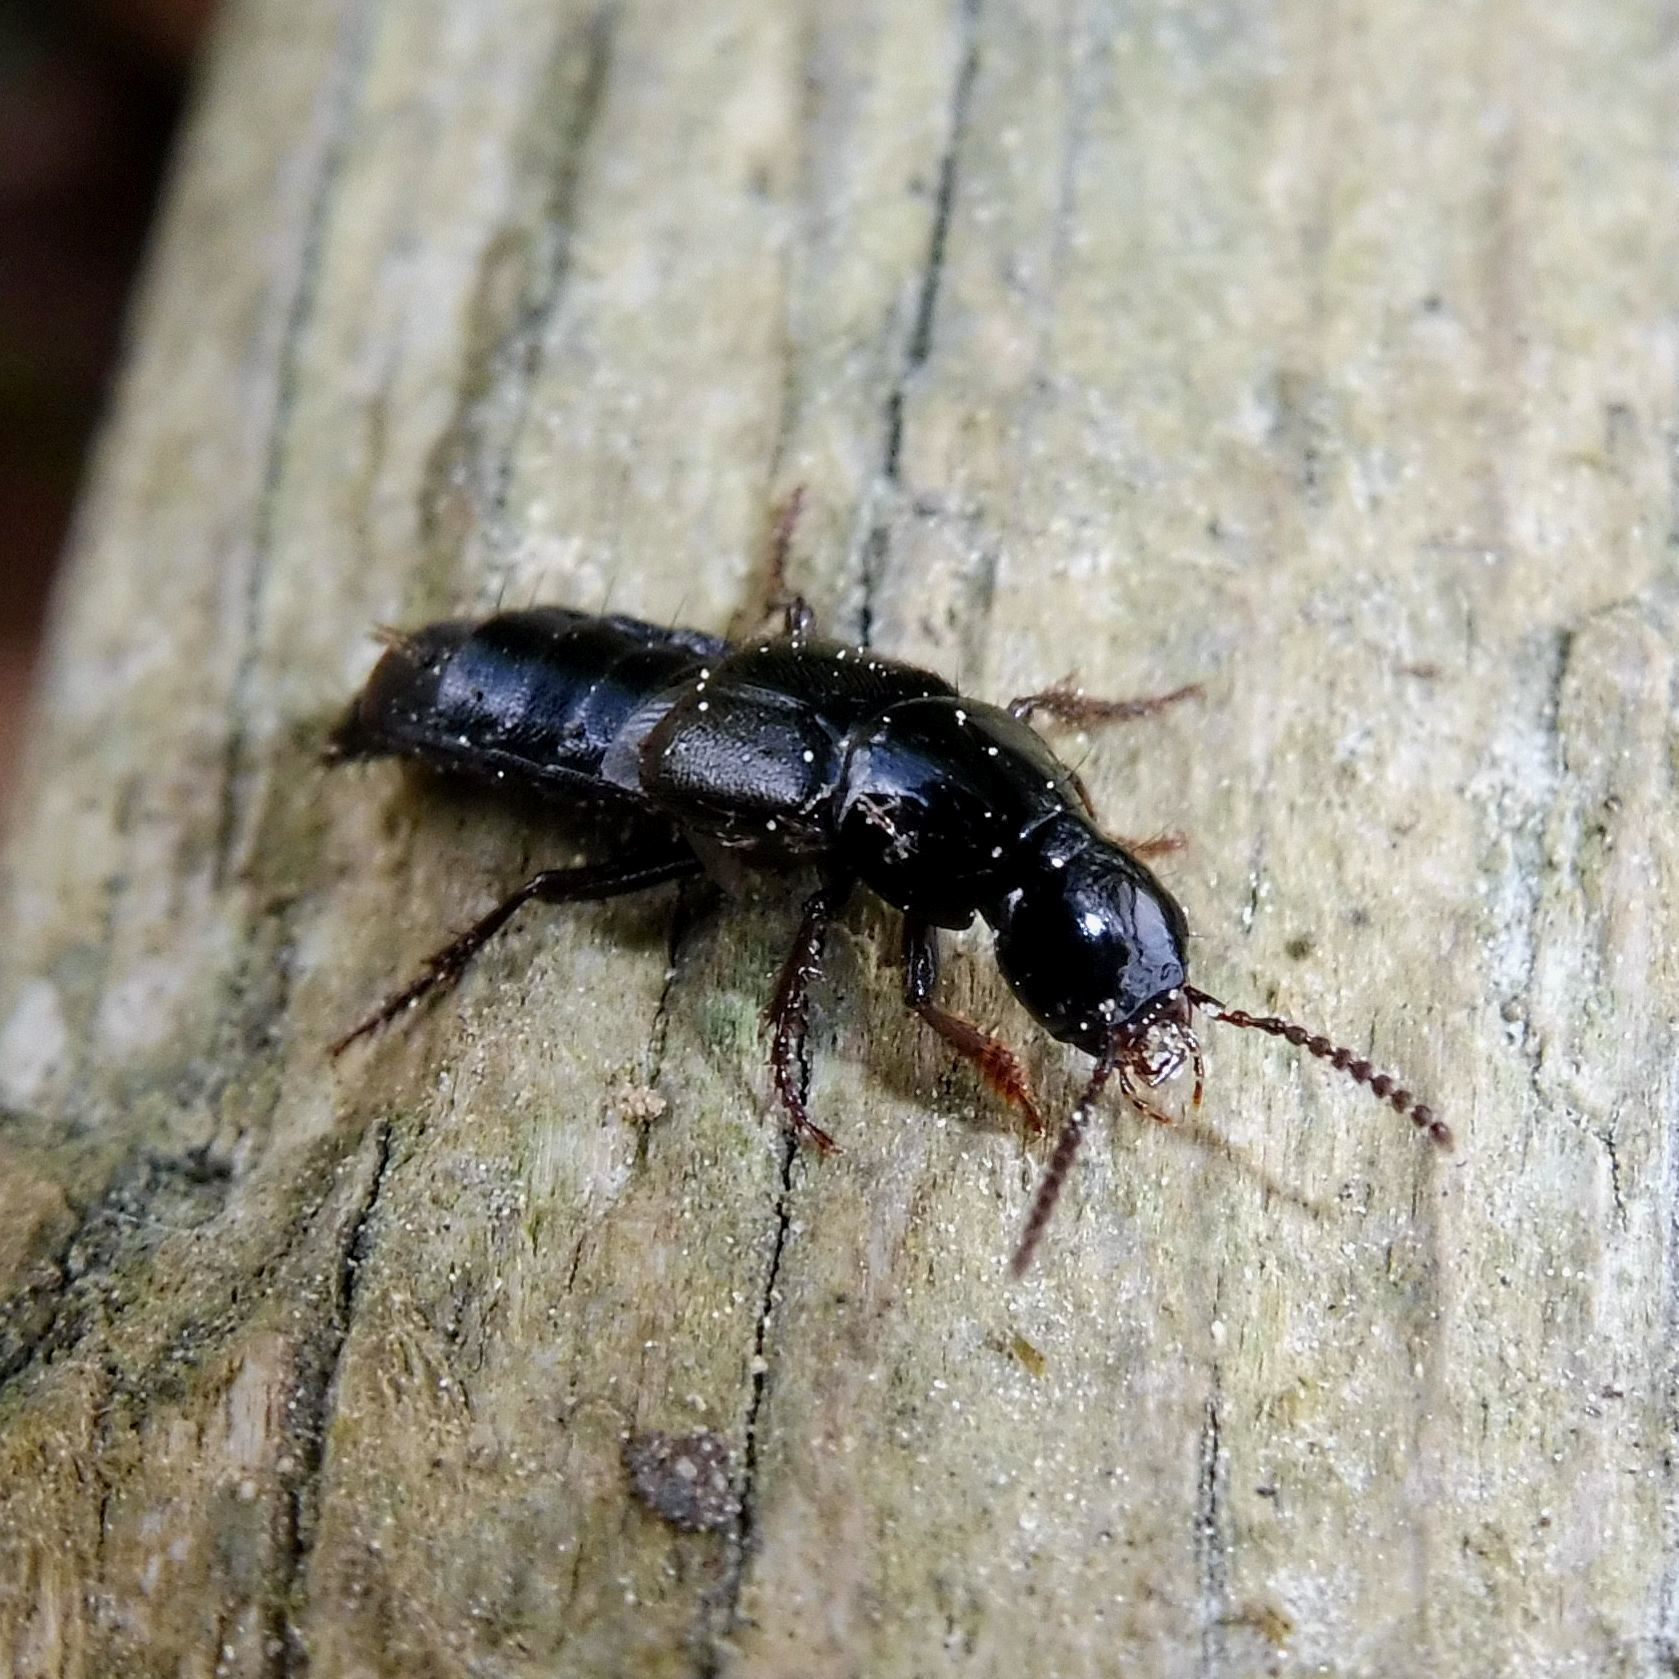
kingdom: Animalia
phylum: Arthropoda
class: Insecta
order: Coleoptera
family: Staphylinidae
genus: Quedius
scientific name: Quedius mesomelinus
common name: Staph beetle
